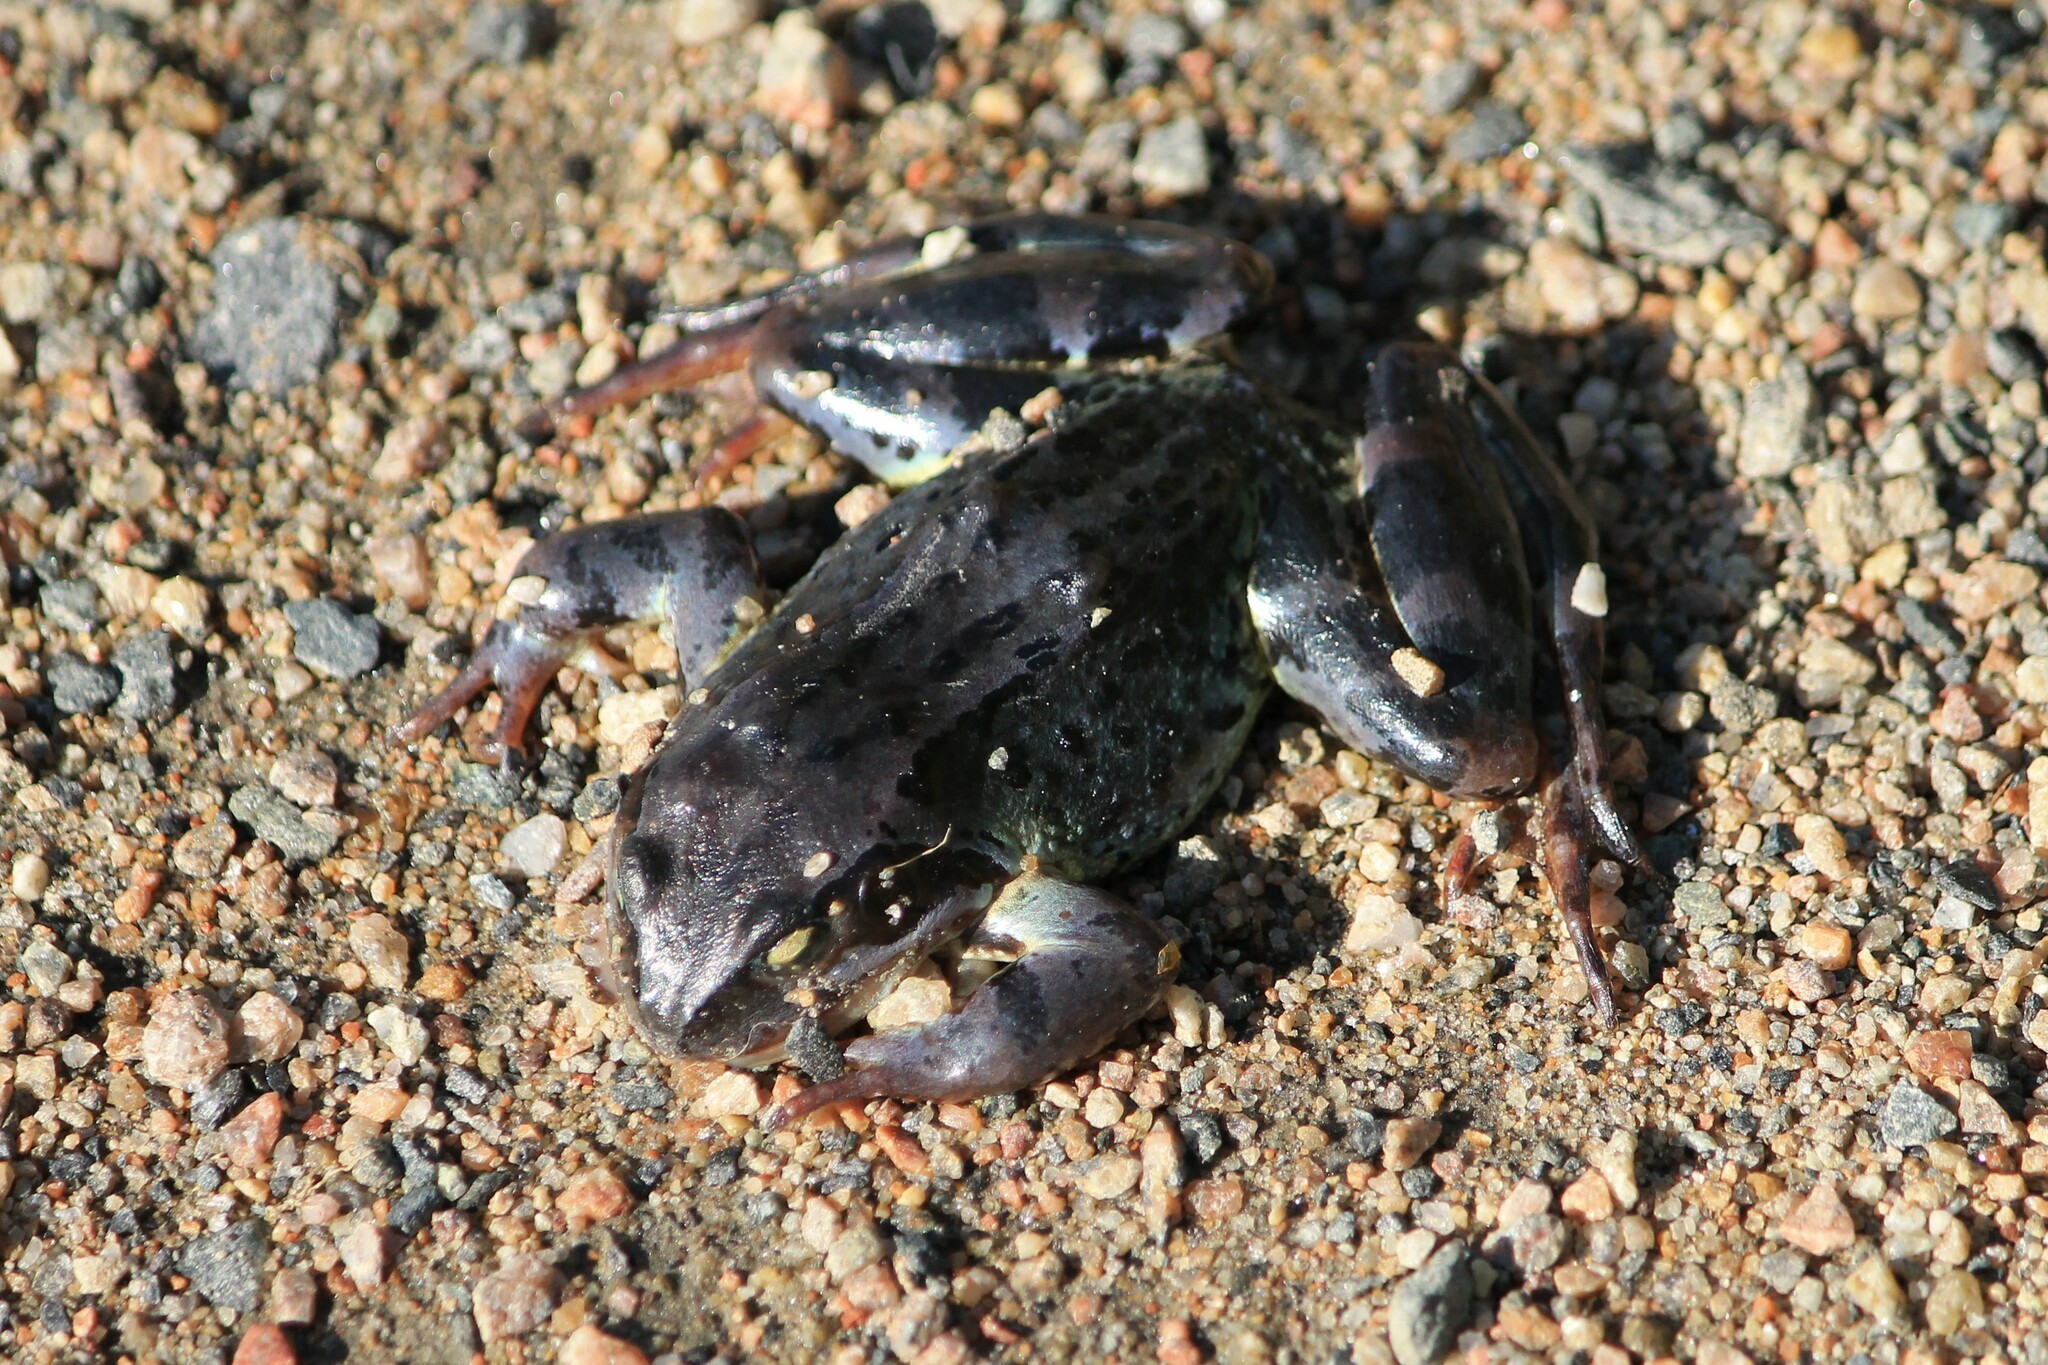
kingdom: Animalia
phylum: Chordata
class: Amphibia
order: Anura
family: Ranidae
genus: Rana
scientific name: Rana temporaria
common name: Common frog
